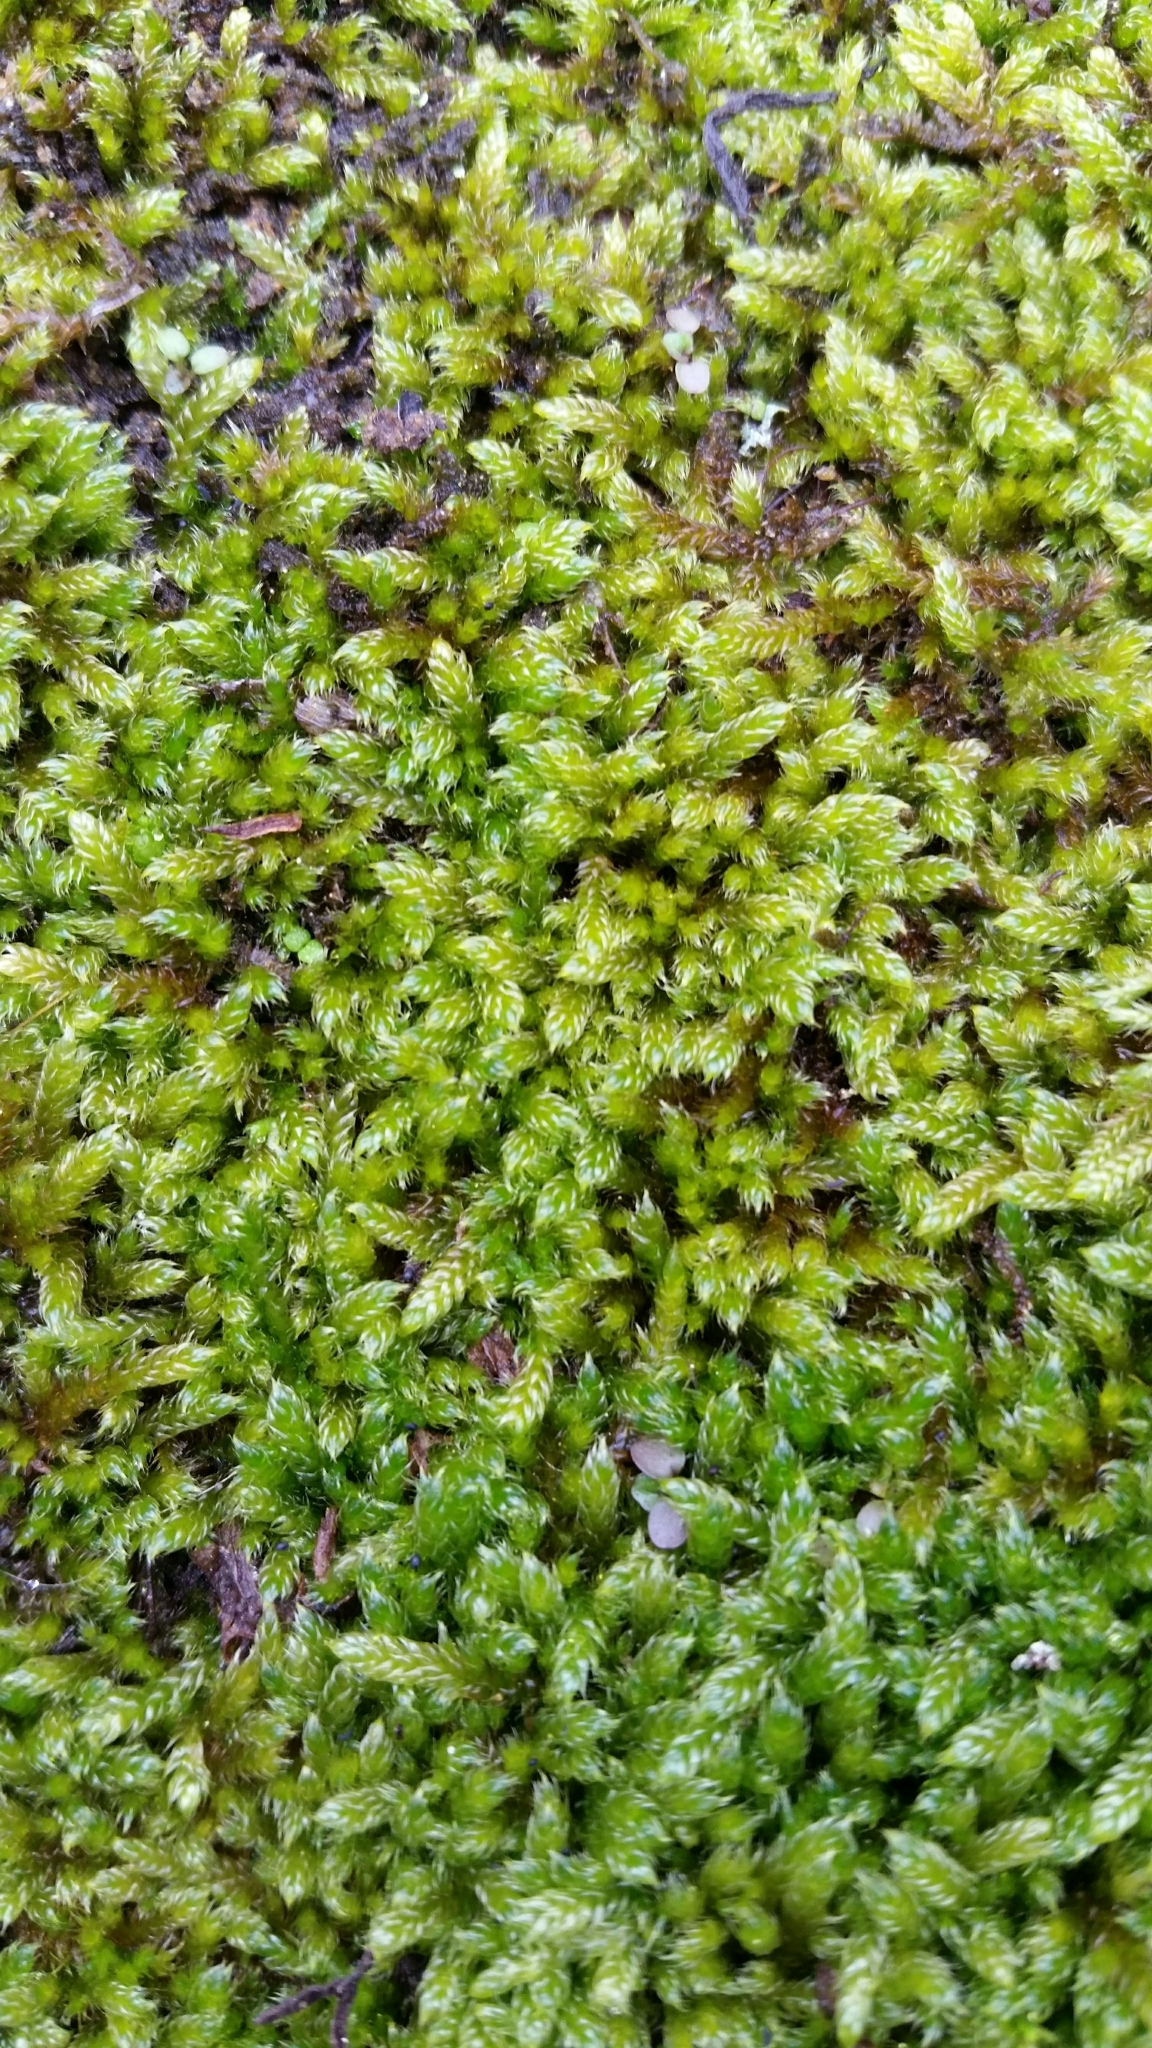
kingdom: Plantae
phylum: Bryophyta
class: Bryopsida
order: Hypnales
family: Hypnaceae
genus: Hypnum
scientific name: Hypnum cupressiforme
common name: Cypress-leaved plait-moss
